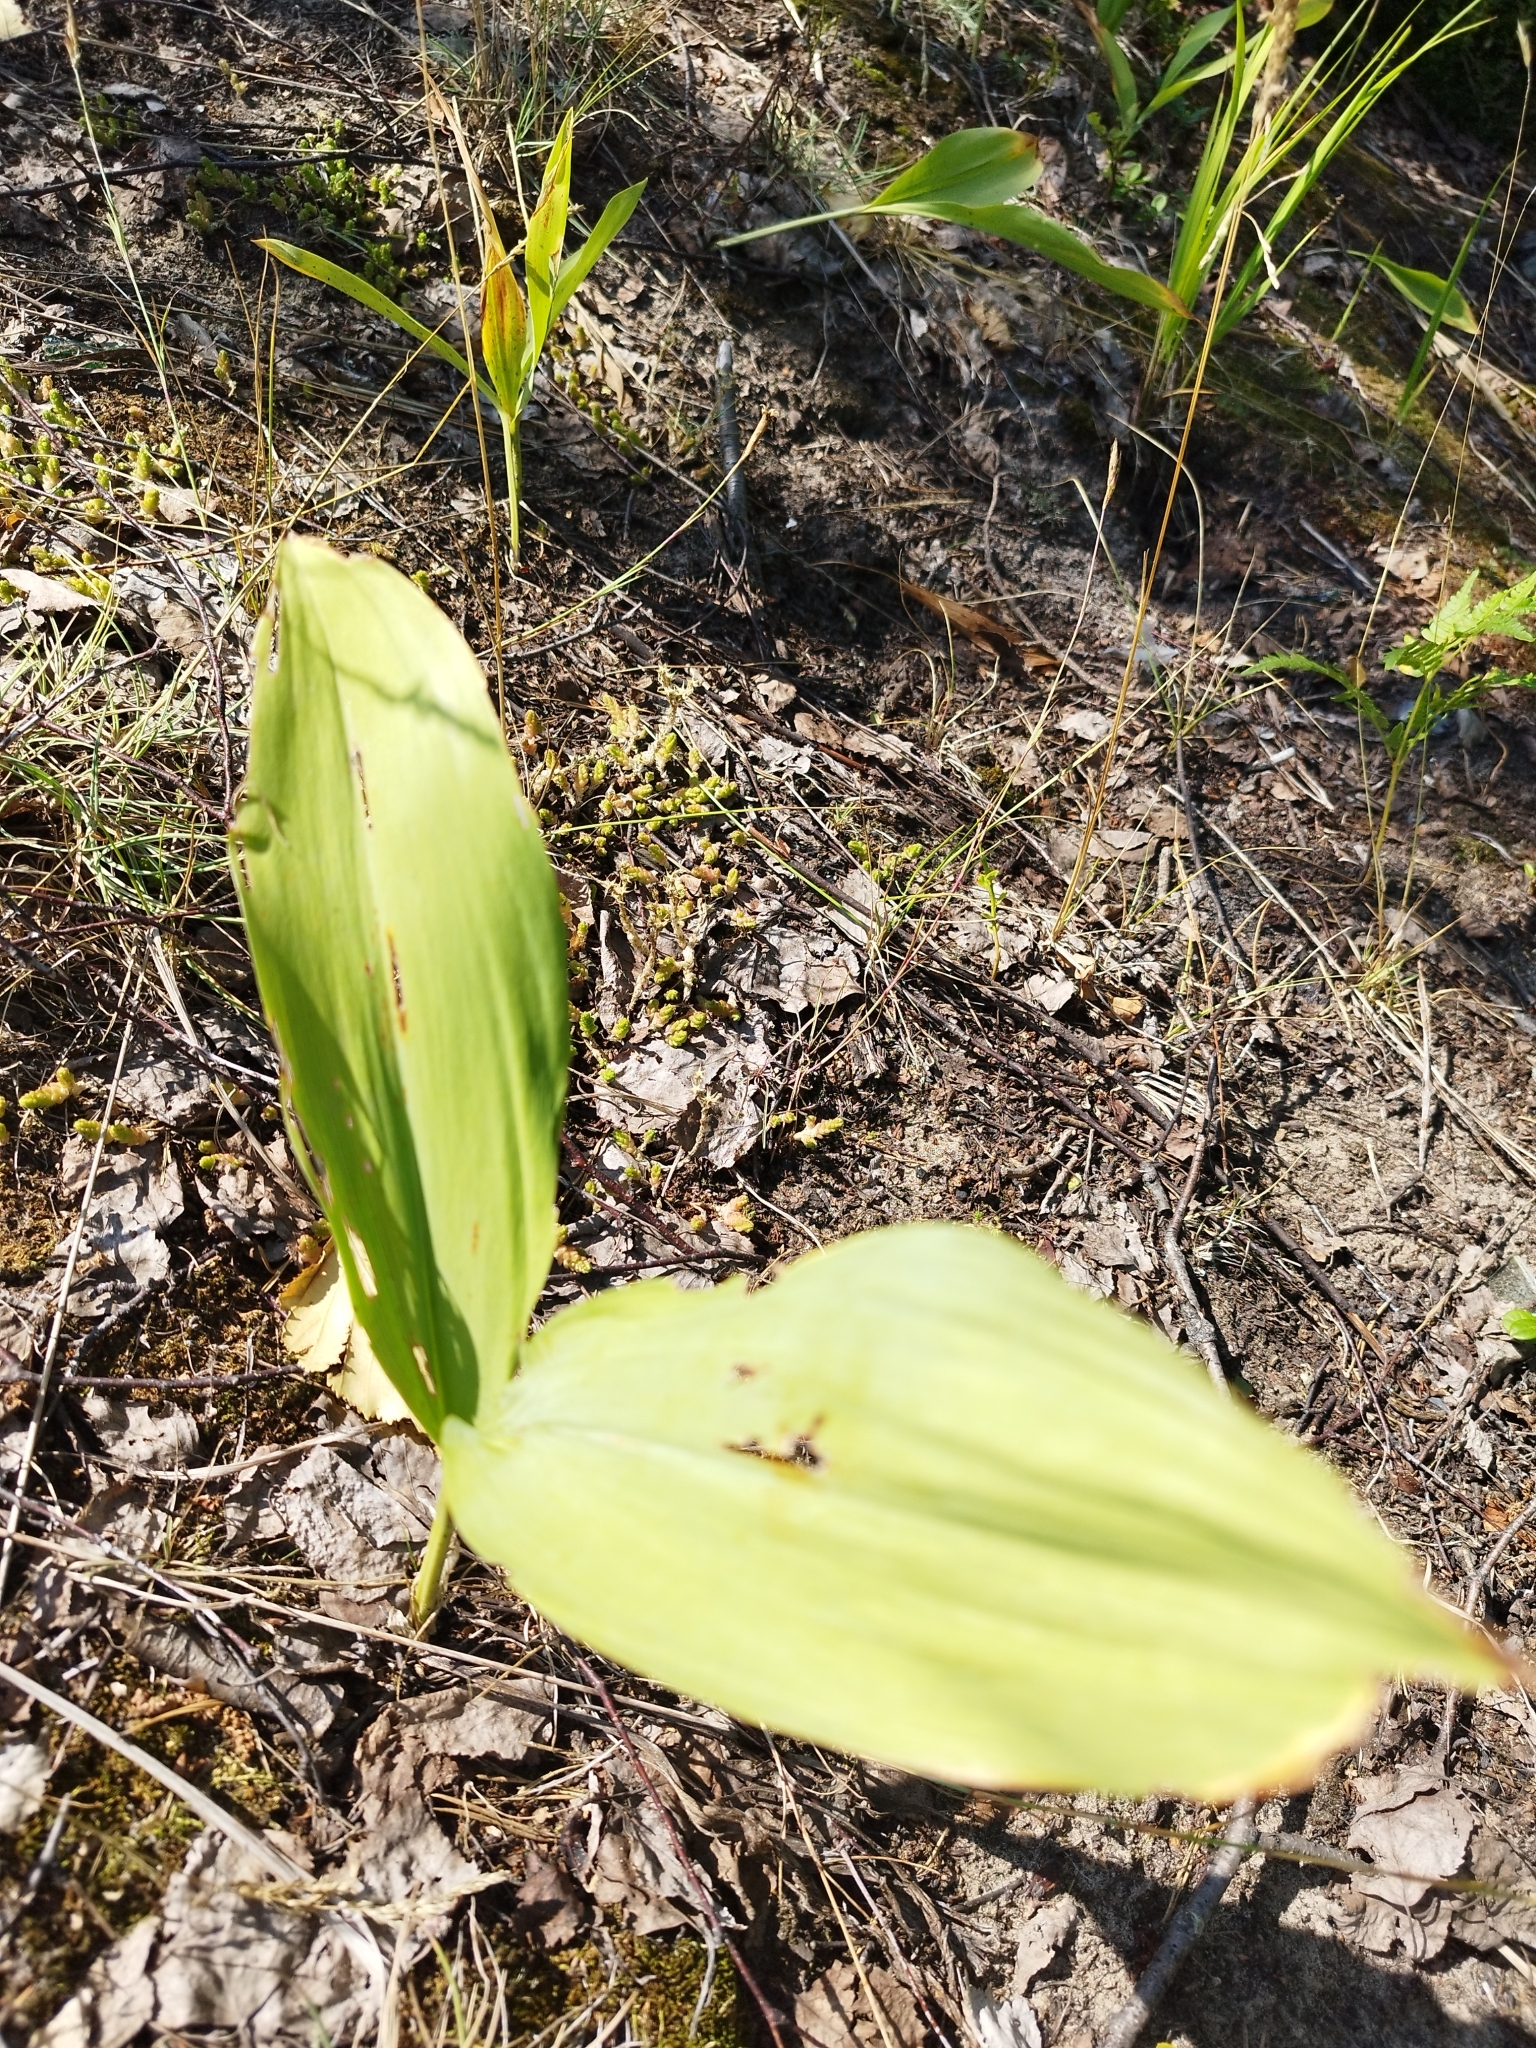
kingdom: Plantae
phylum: Tracheophyta
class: Liliopsida
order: Asparagales
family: Asparagaceae
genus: Convallaria
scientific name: Convallaria majalis
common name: Lily-of-the-valley
